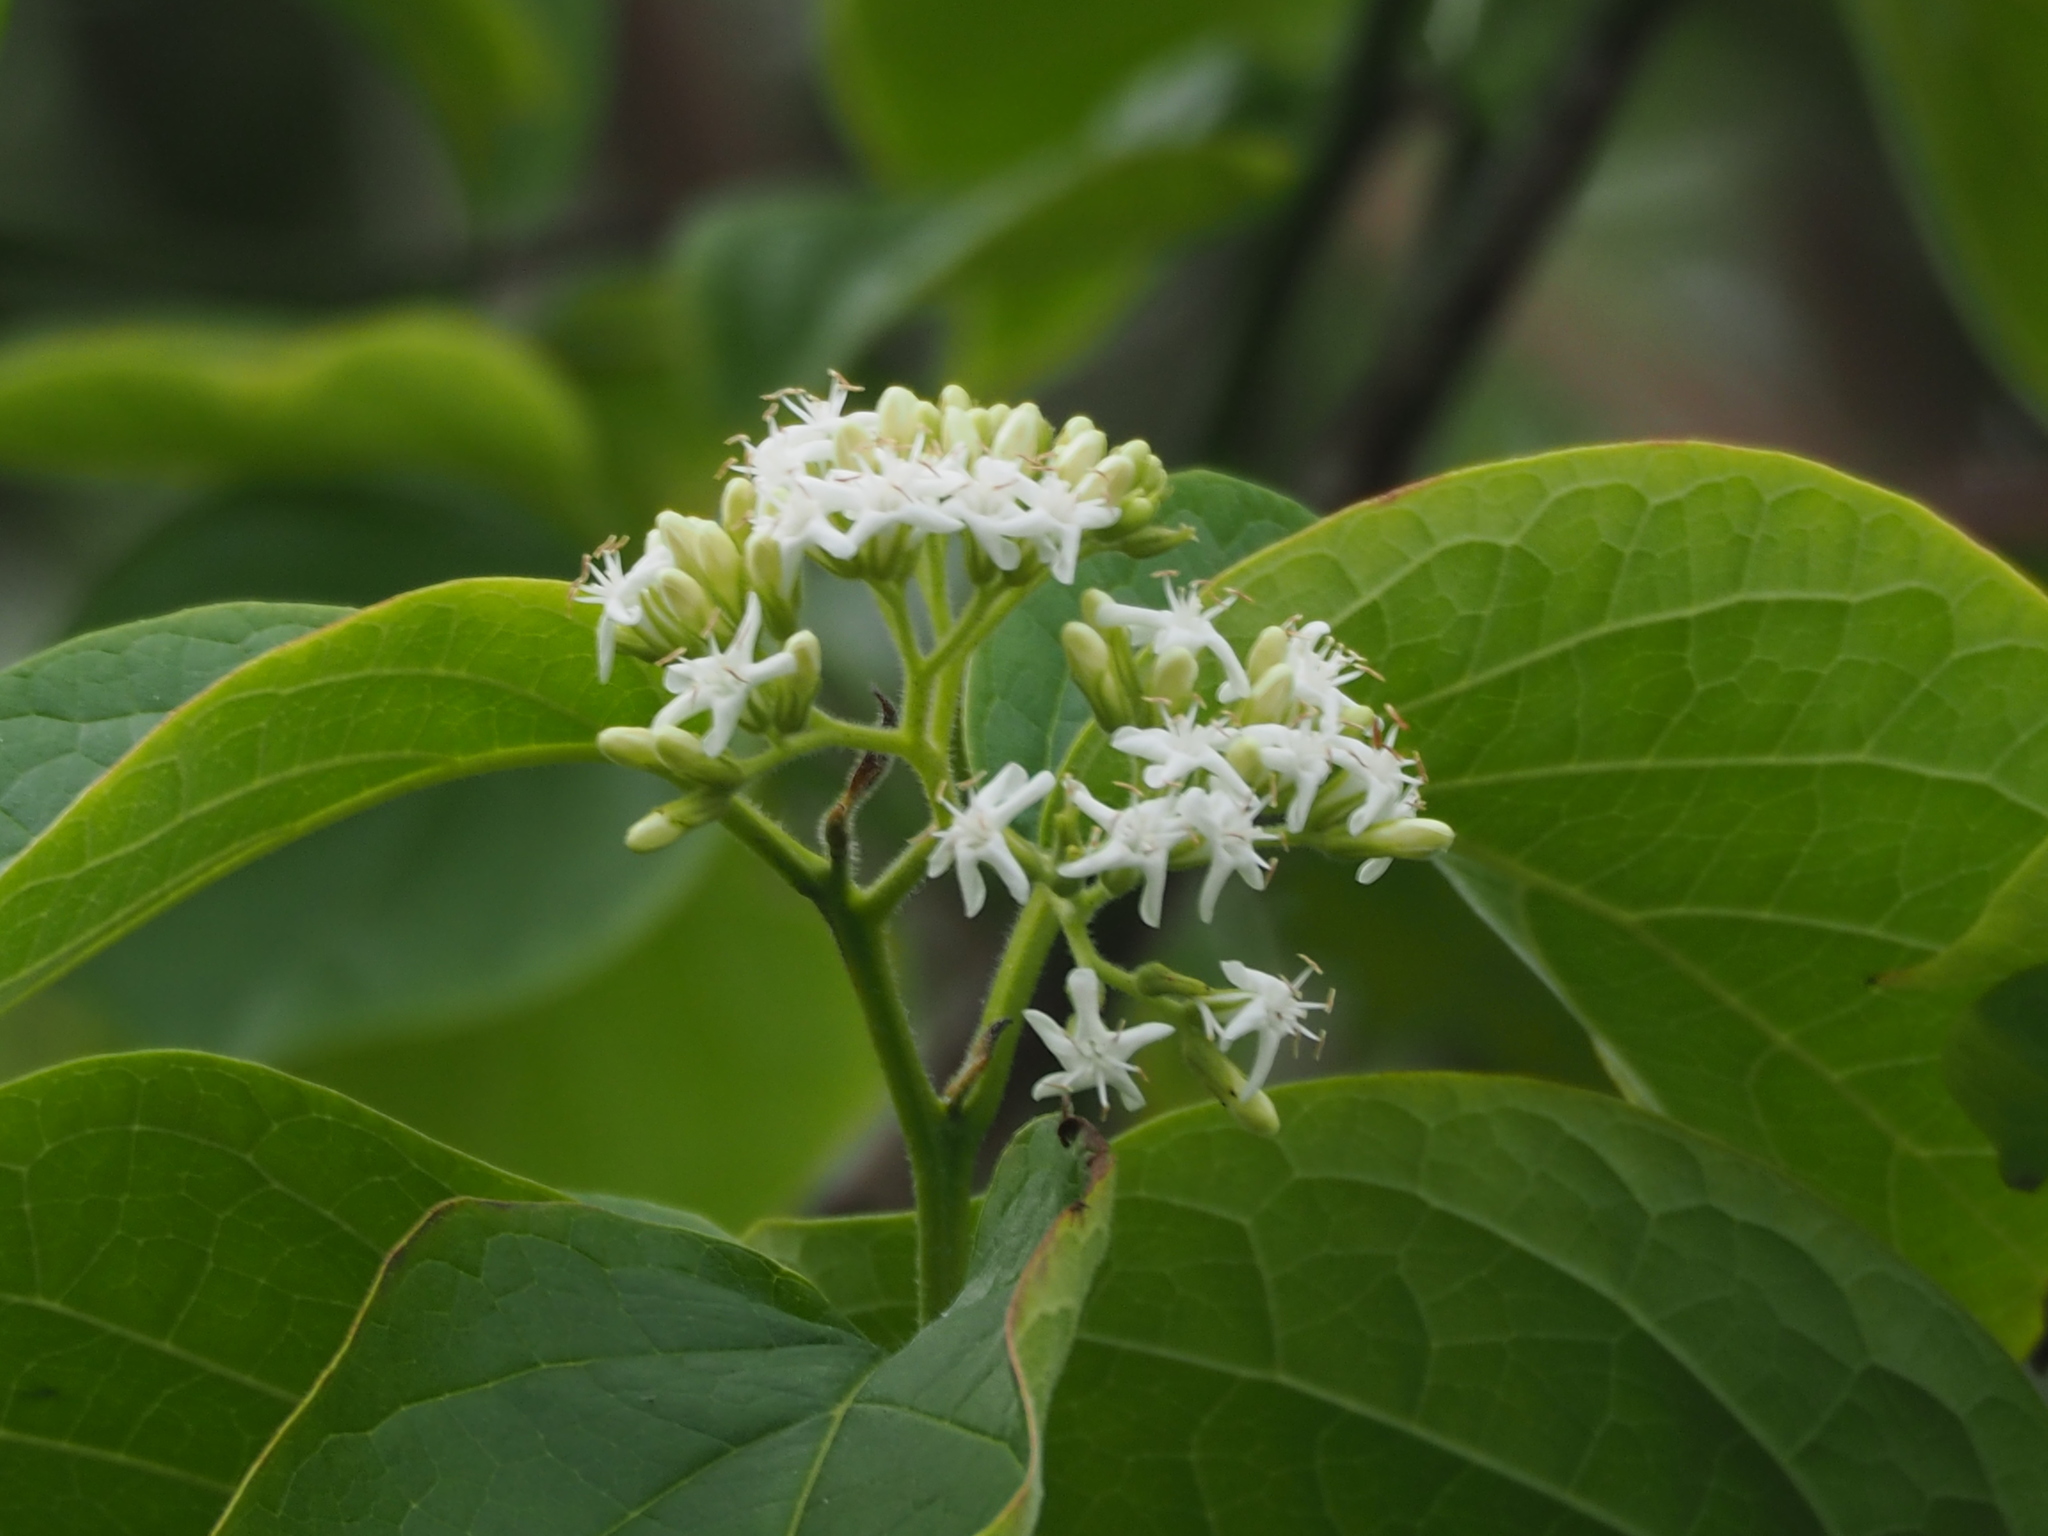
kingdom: Plantae
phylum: Tracheophyta
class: Magnoliopsida
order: Boraginales
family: Ehretiaceae
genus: Ehretia
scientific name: Ehretia resinosa
